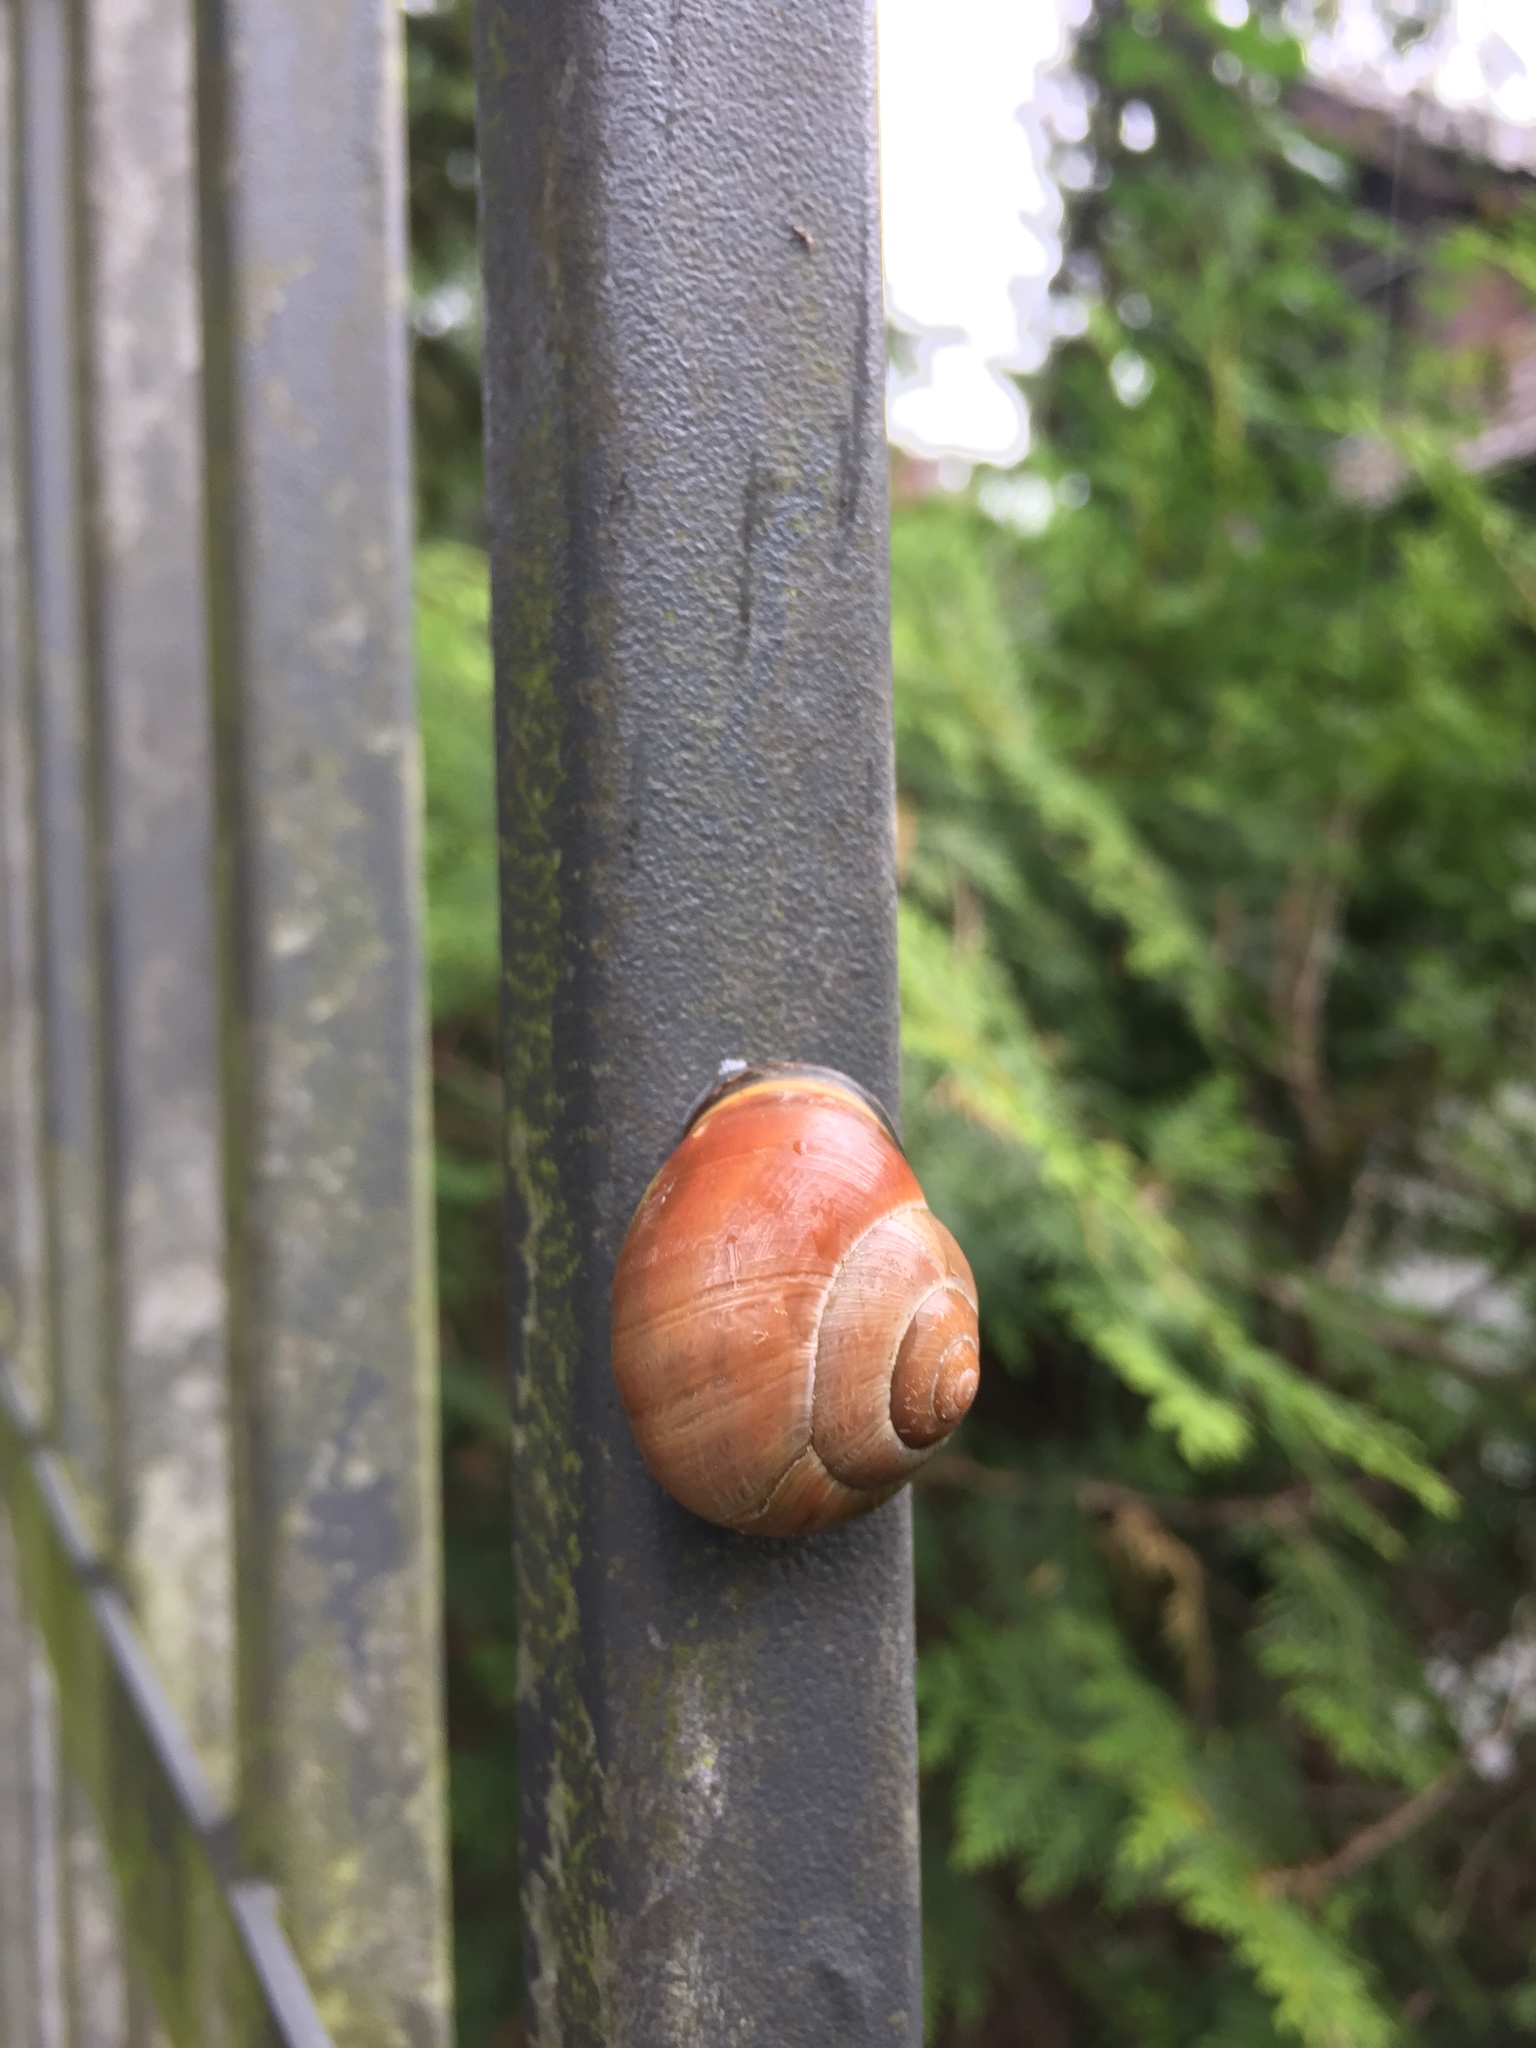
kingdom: Animalia
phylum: Mollusca
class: Gastropoda
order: Stylommatophora
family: Helicidae
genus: Cepaea
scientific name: Cepaea nemoralis
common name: Grovesnail
